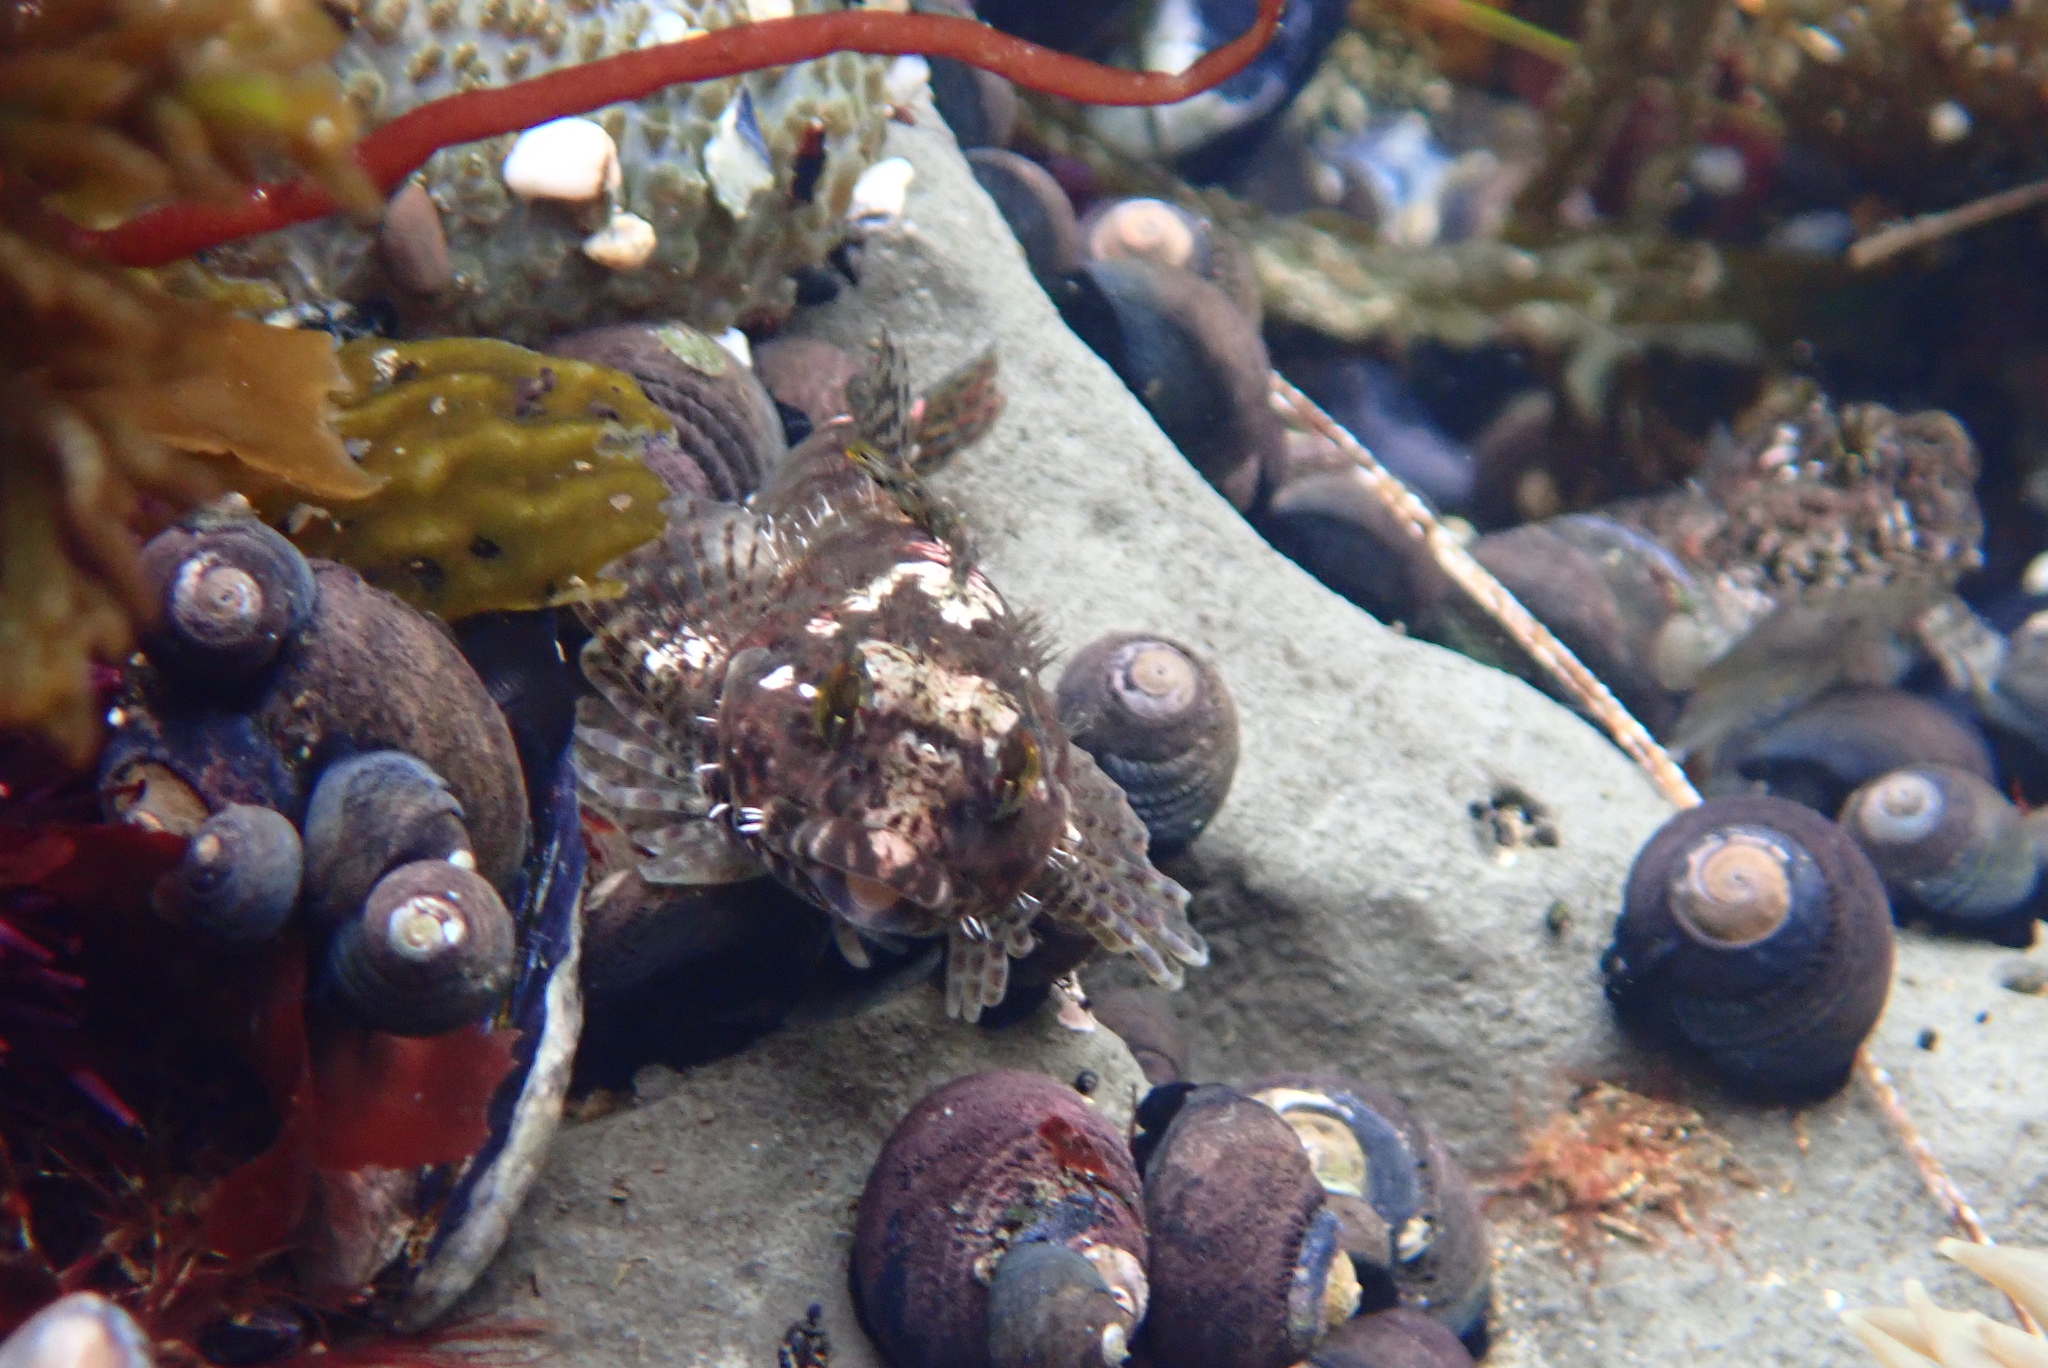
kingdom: Animalia
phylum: Chordata
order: Scorpaeniformes
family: Cottidae
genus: Clinocottus
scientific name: Clinocottus analis
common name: Woolly sculpin
